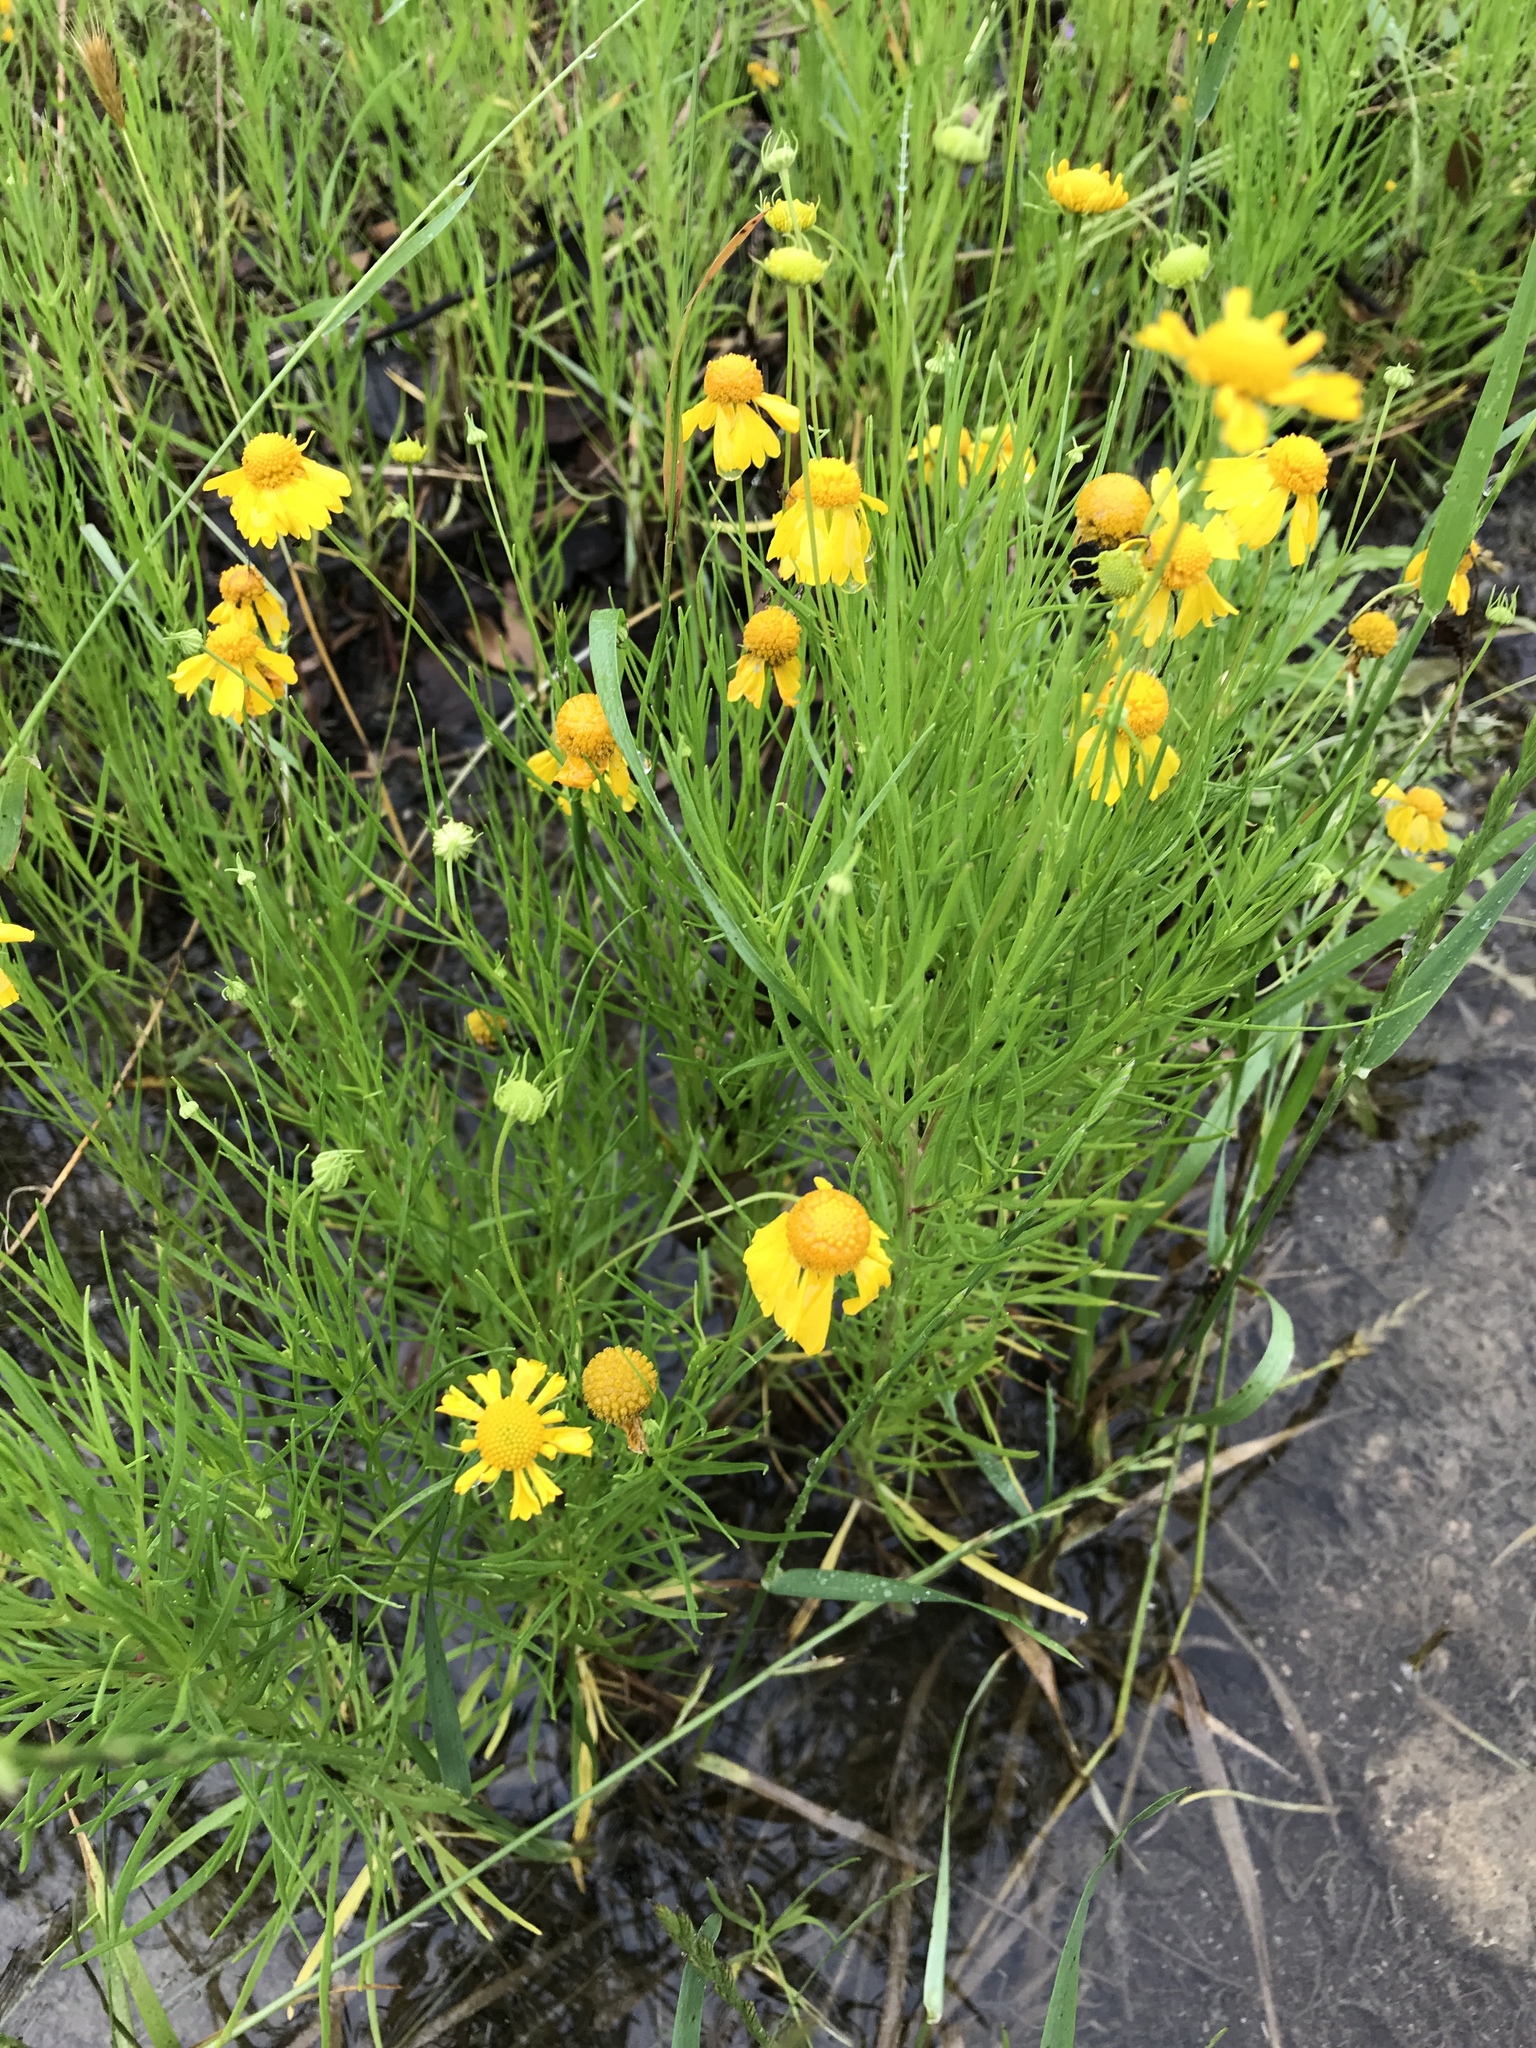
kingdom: Plantae
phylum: Tracheophyta
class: Magnoliopsida
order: Asterales
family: Asteraceae
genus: Helenium
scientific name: Helenium amarum
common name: Bitter sneezeweed
